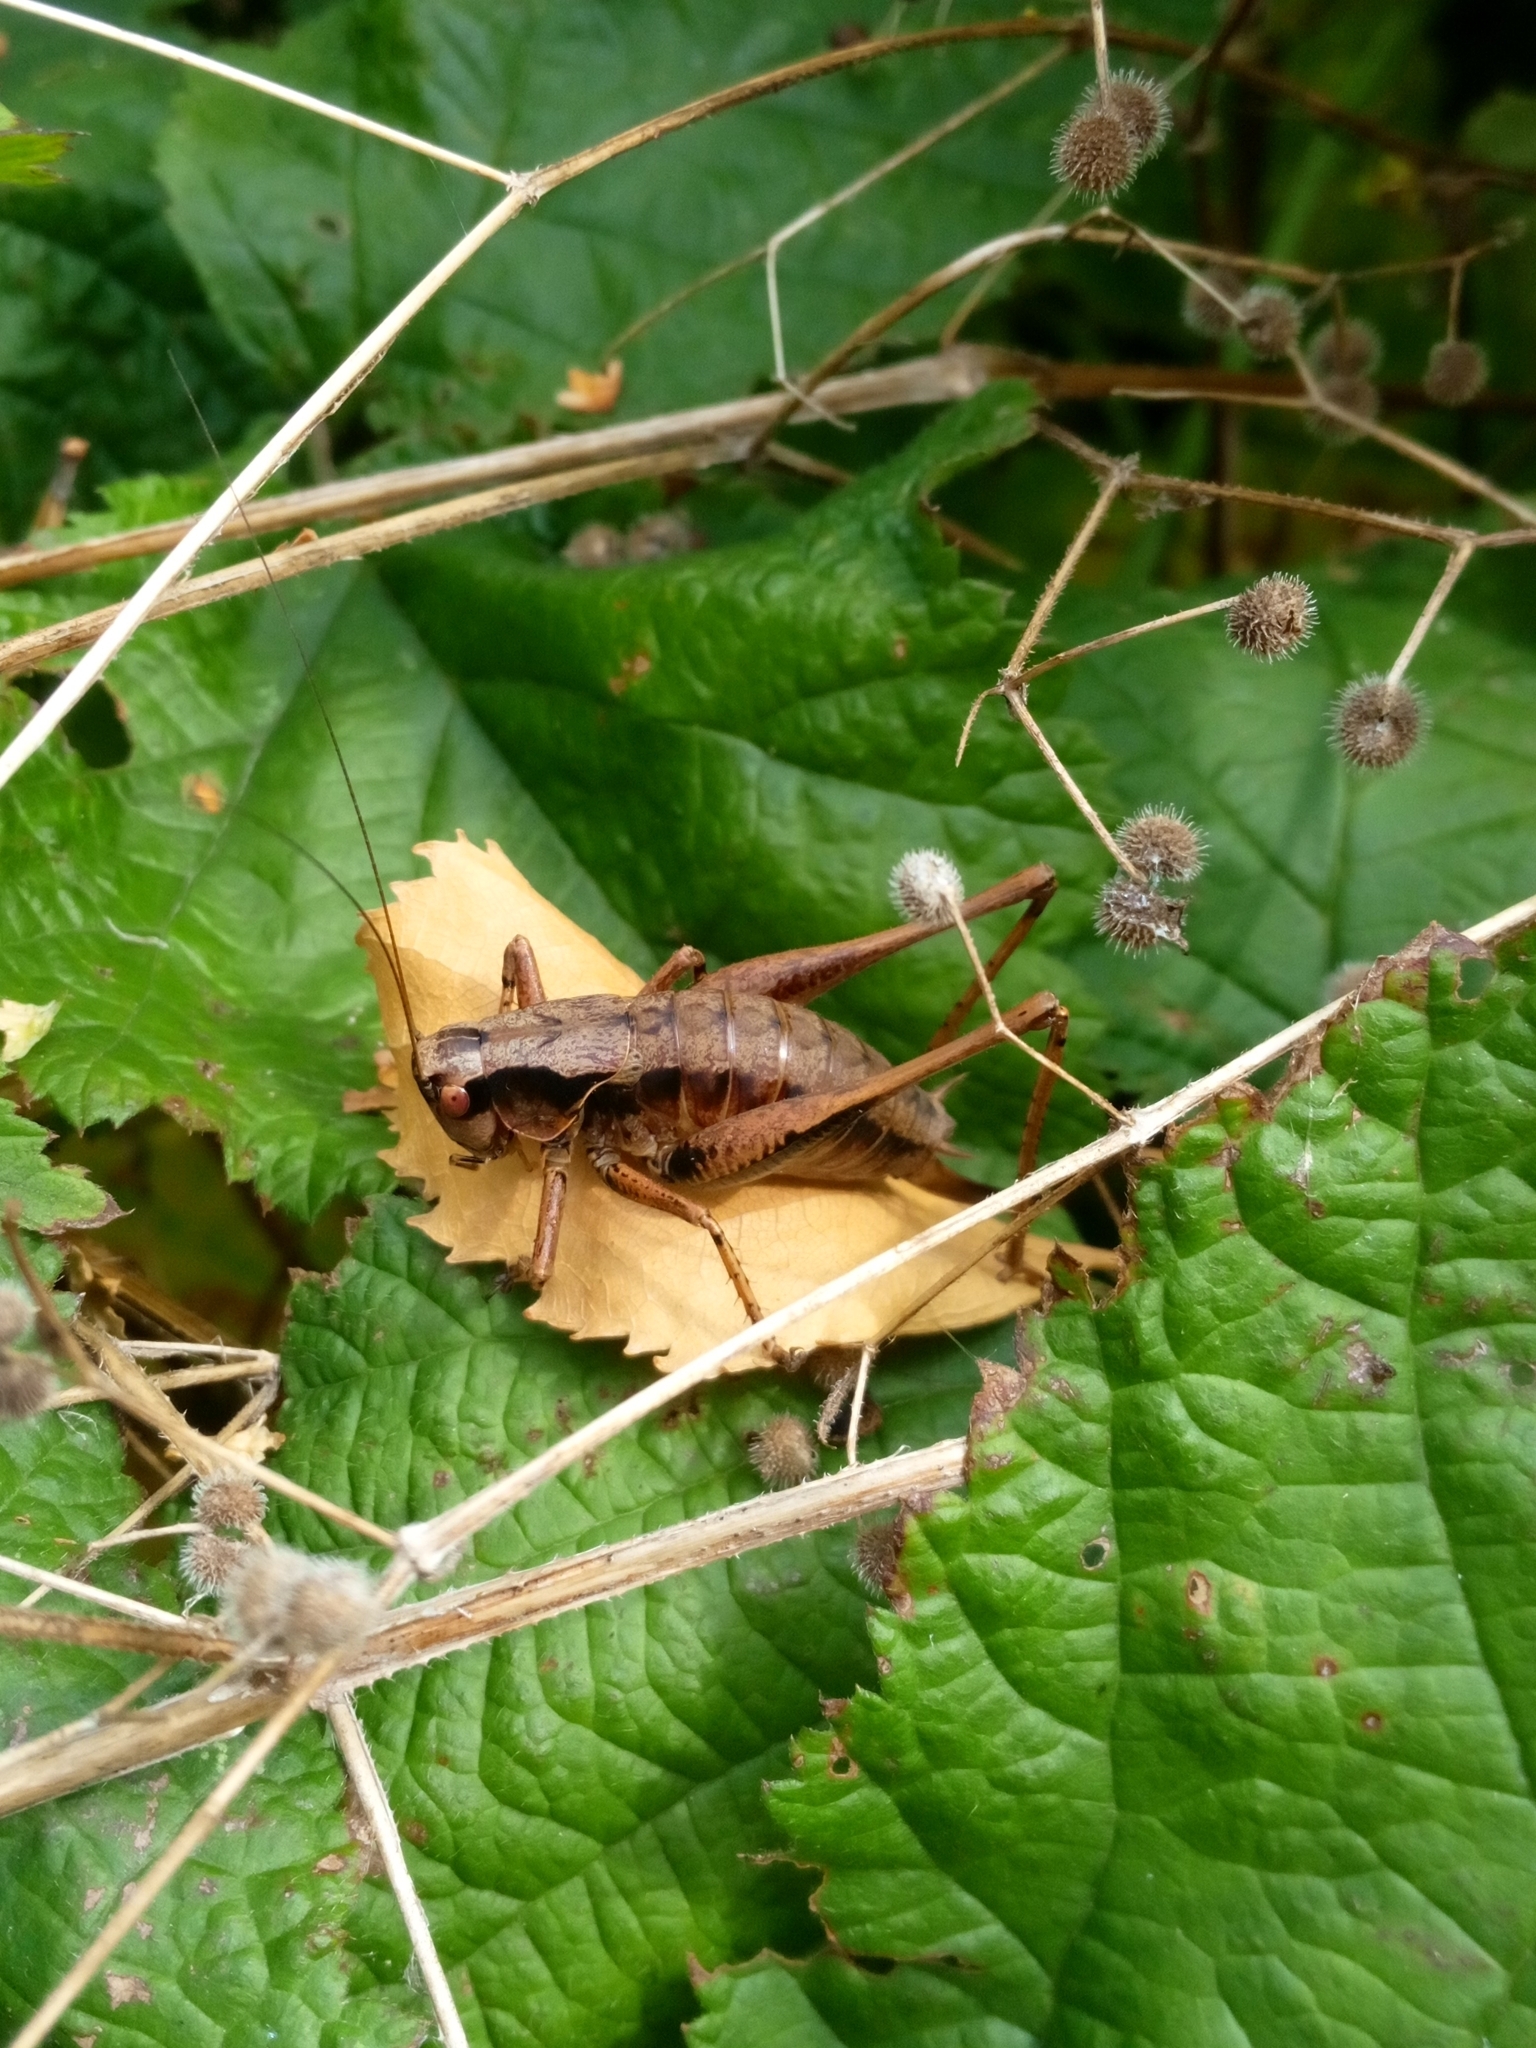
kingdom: Animalia
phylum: Arthropoda
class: Insecta
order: Orthoptera
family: Tettigoniidae
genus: Pholidoptera
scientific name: Pholidoptera griseoaptera
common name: Dark bush-cricket
